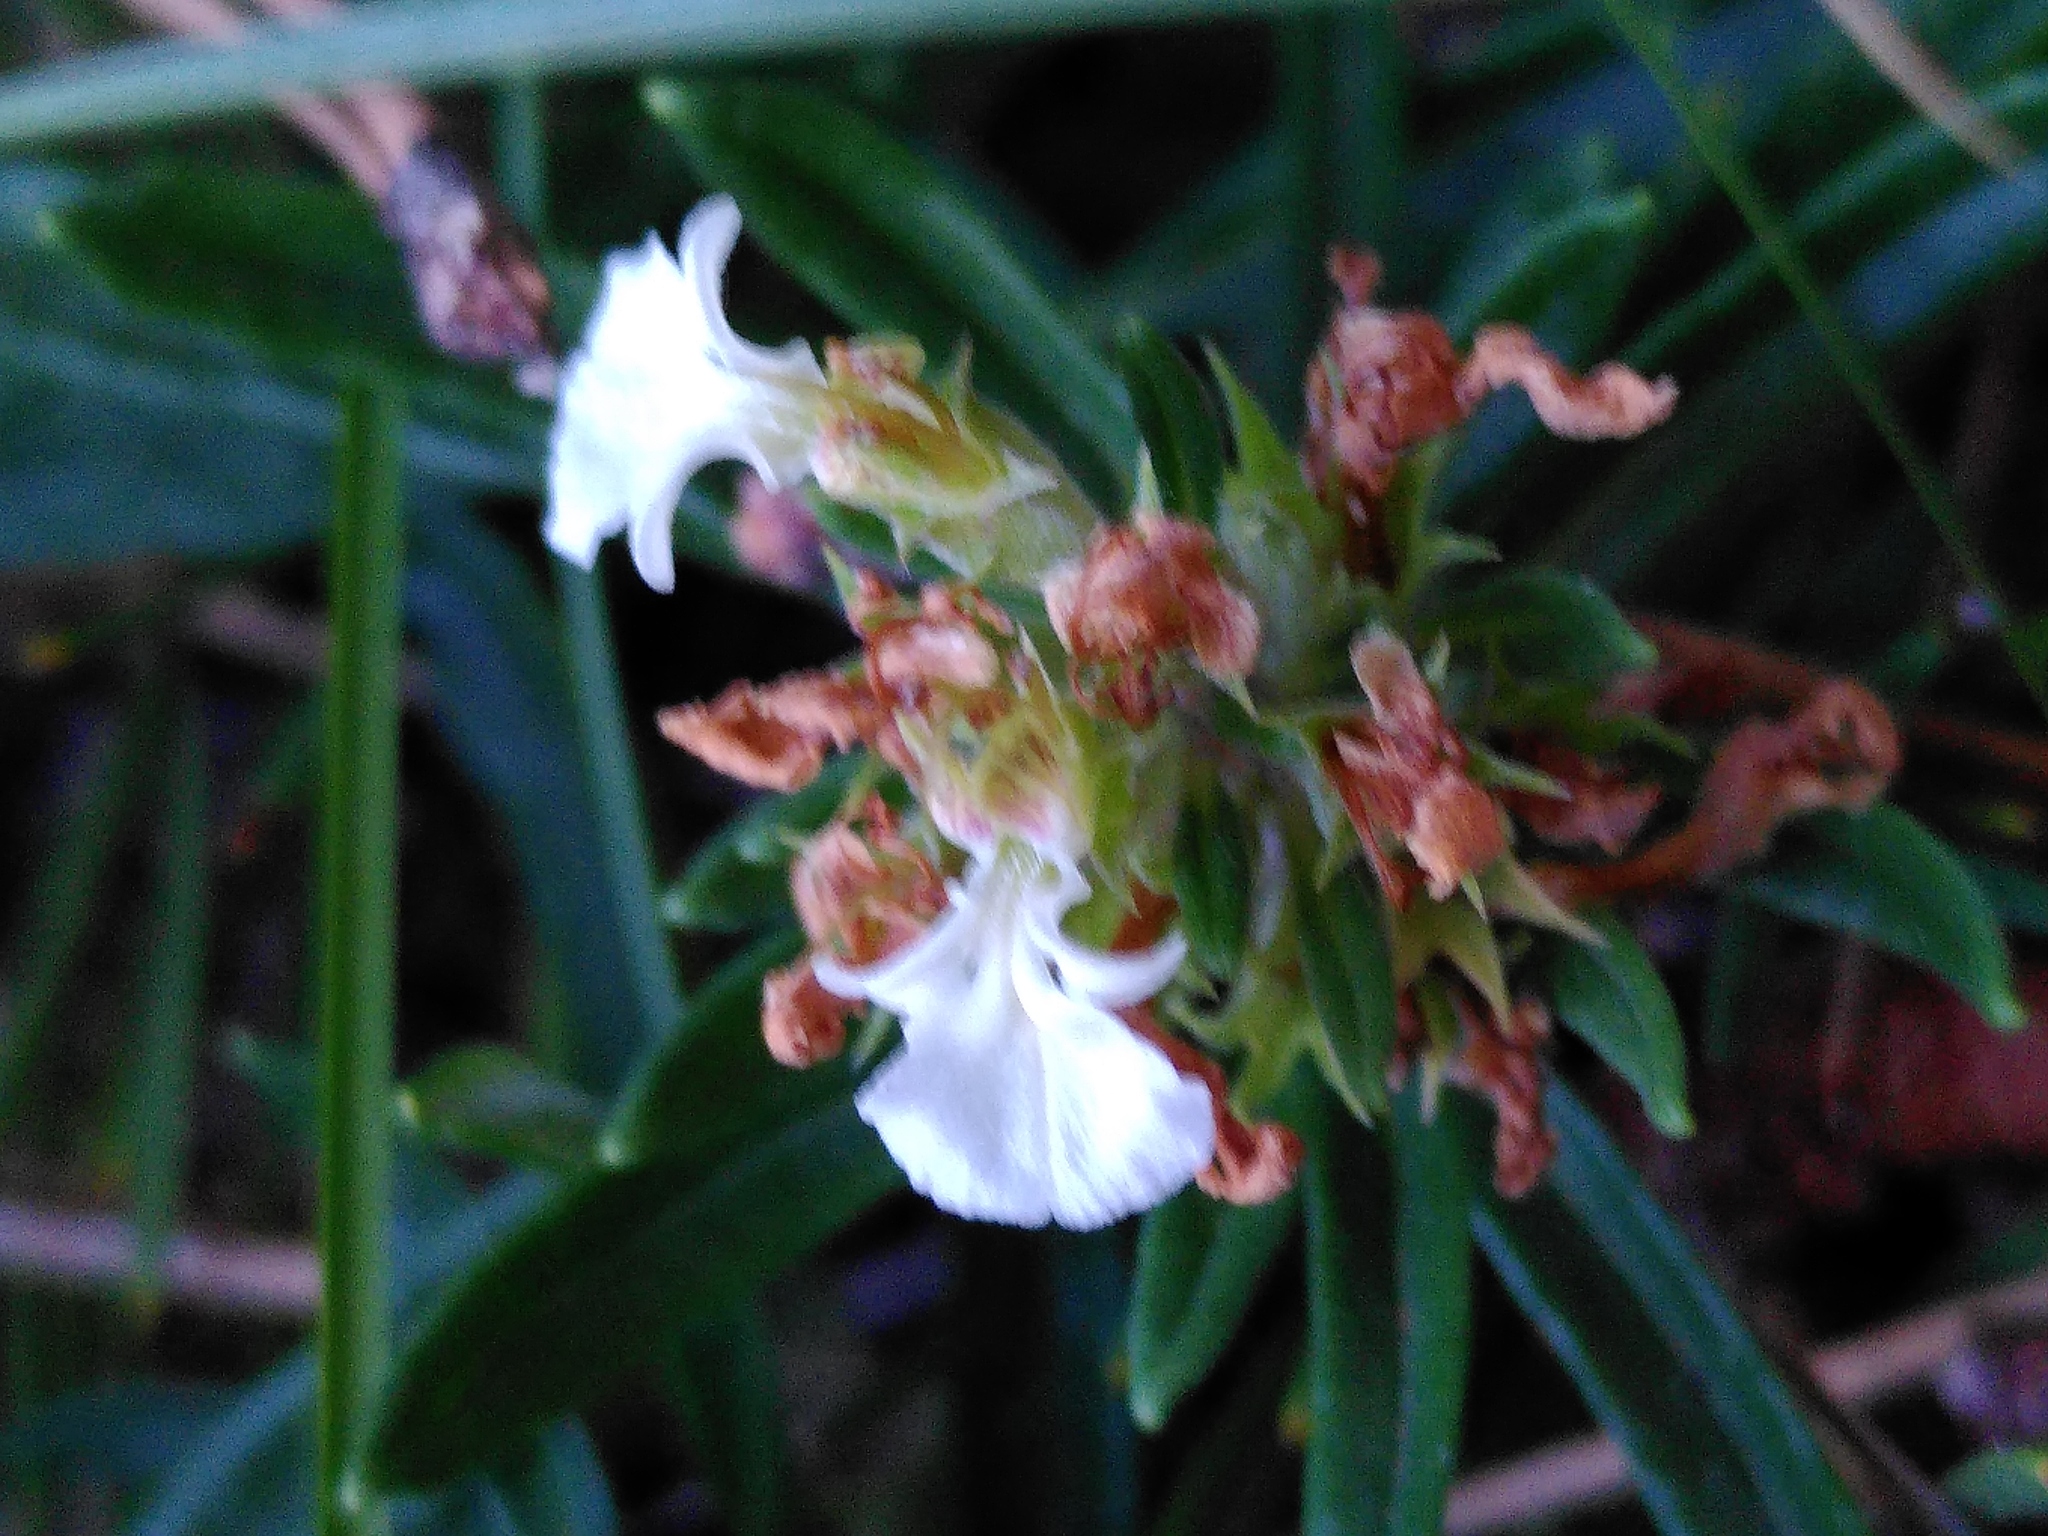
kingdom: Plantae
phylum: Tracheophyta
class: Magnoliopsida
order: Lamiales
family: Lamiaceae
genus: Teucrium
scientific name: Teucrium montanum
